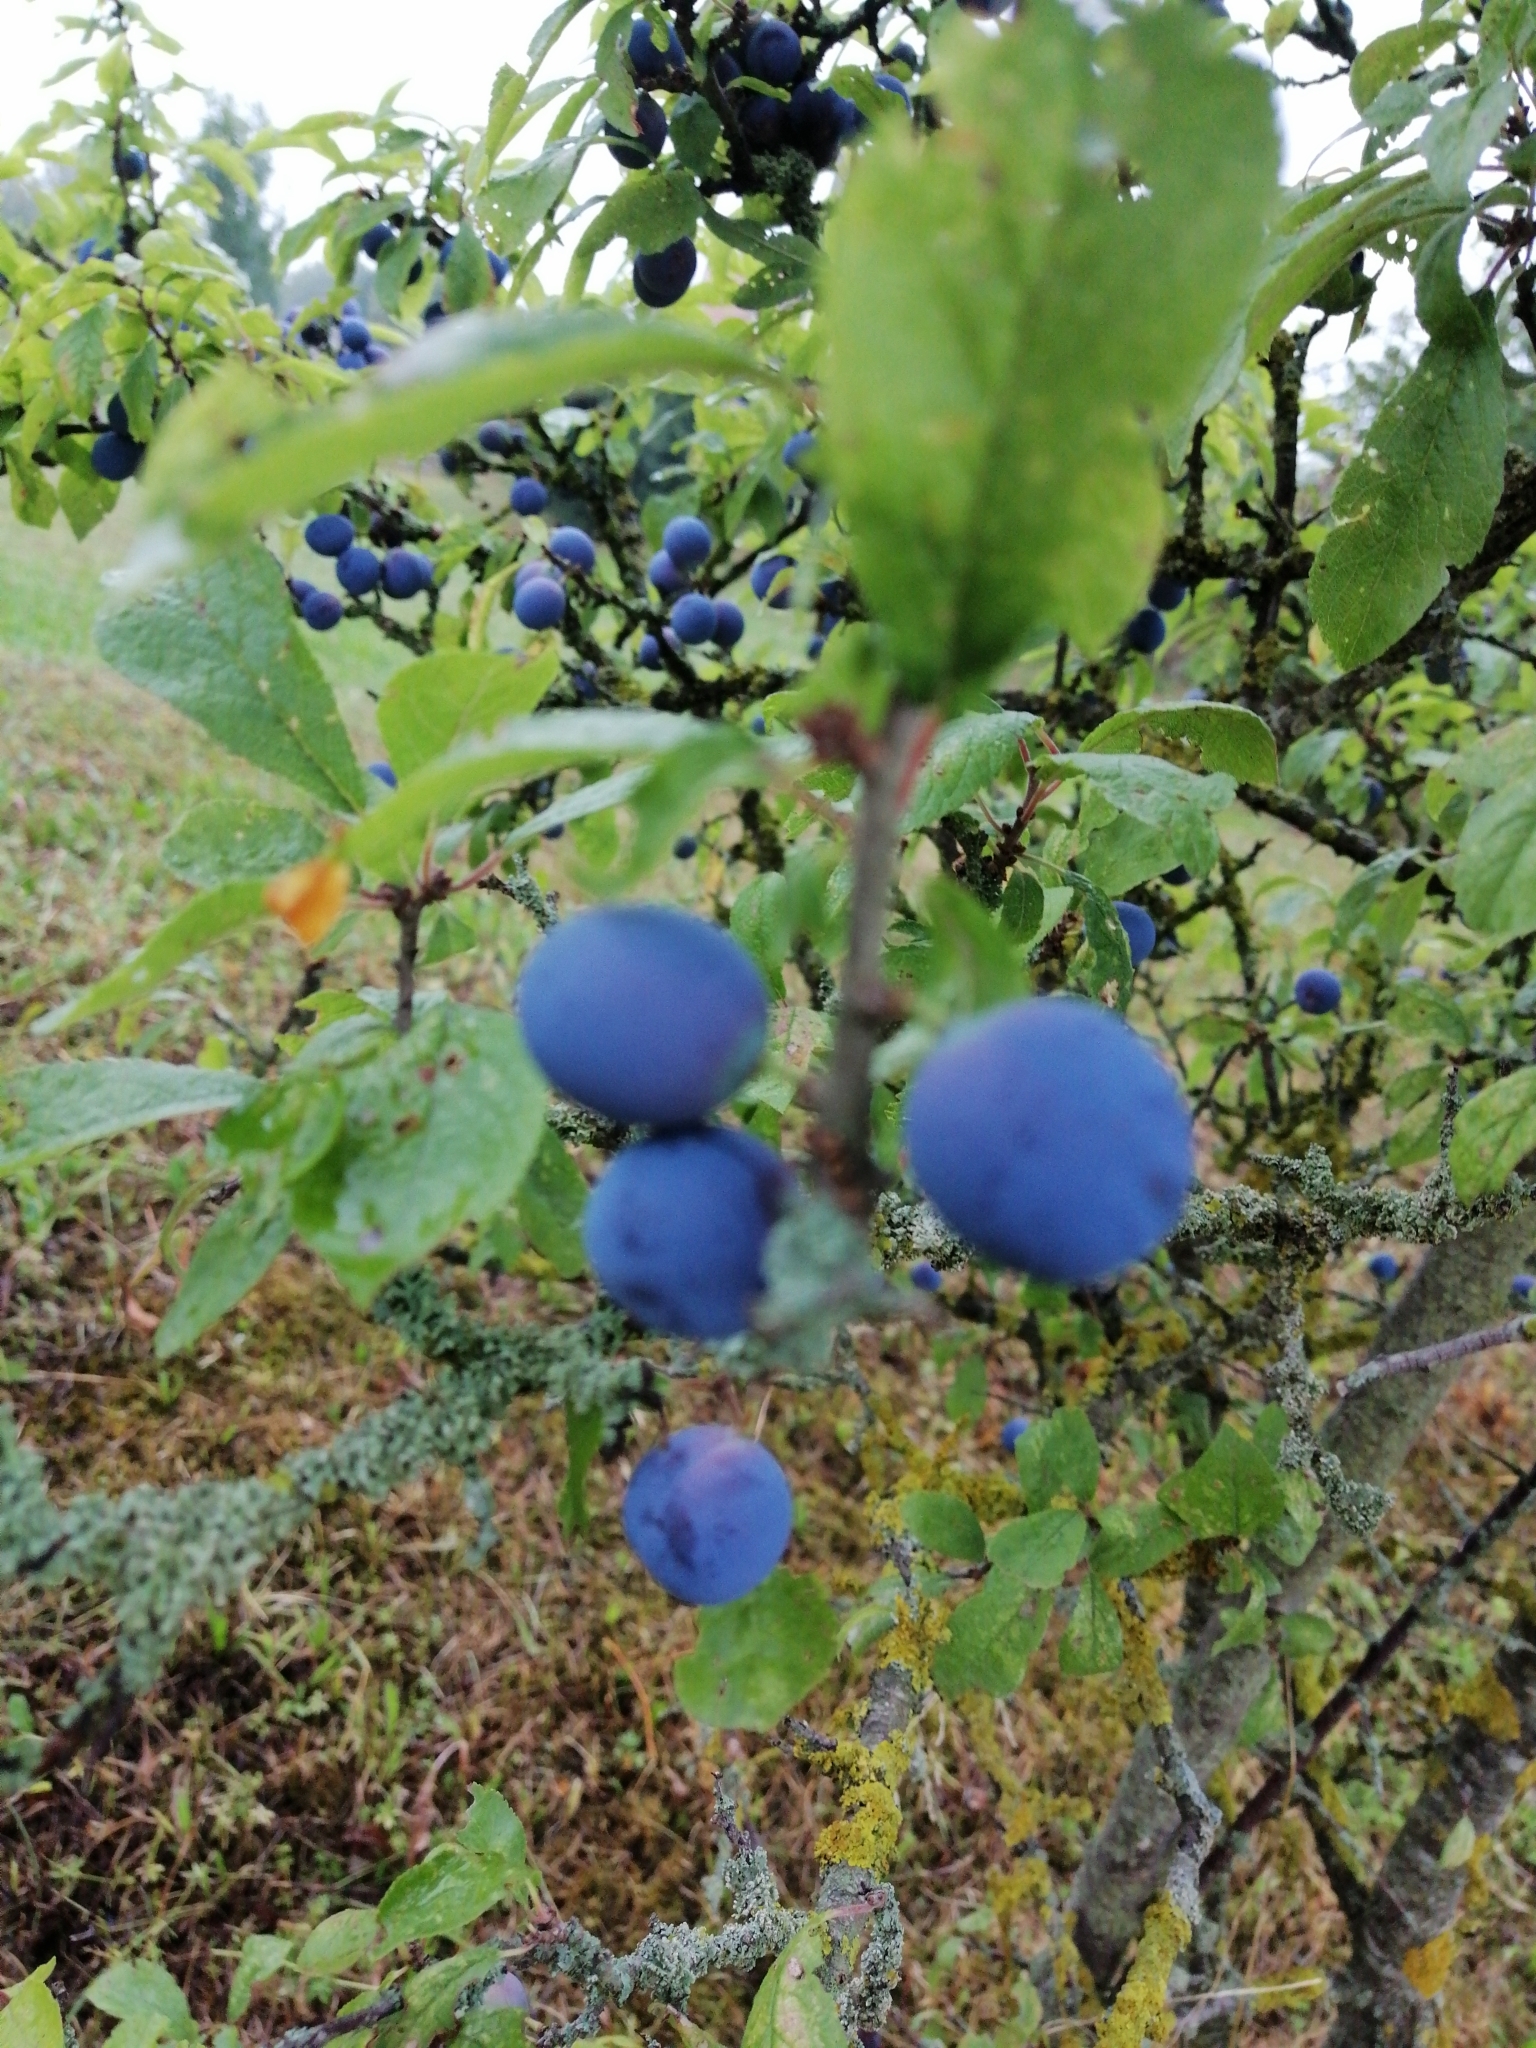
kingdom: Plantae
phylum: Tracheophyta
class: Magnoliopsida
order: Rosales
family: Rosaceae
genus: Prunus
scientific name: Prunus spinosa
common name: Blackthorn
